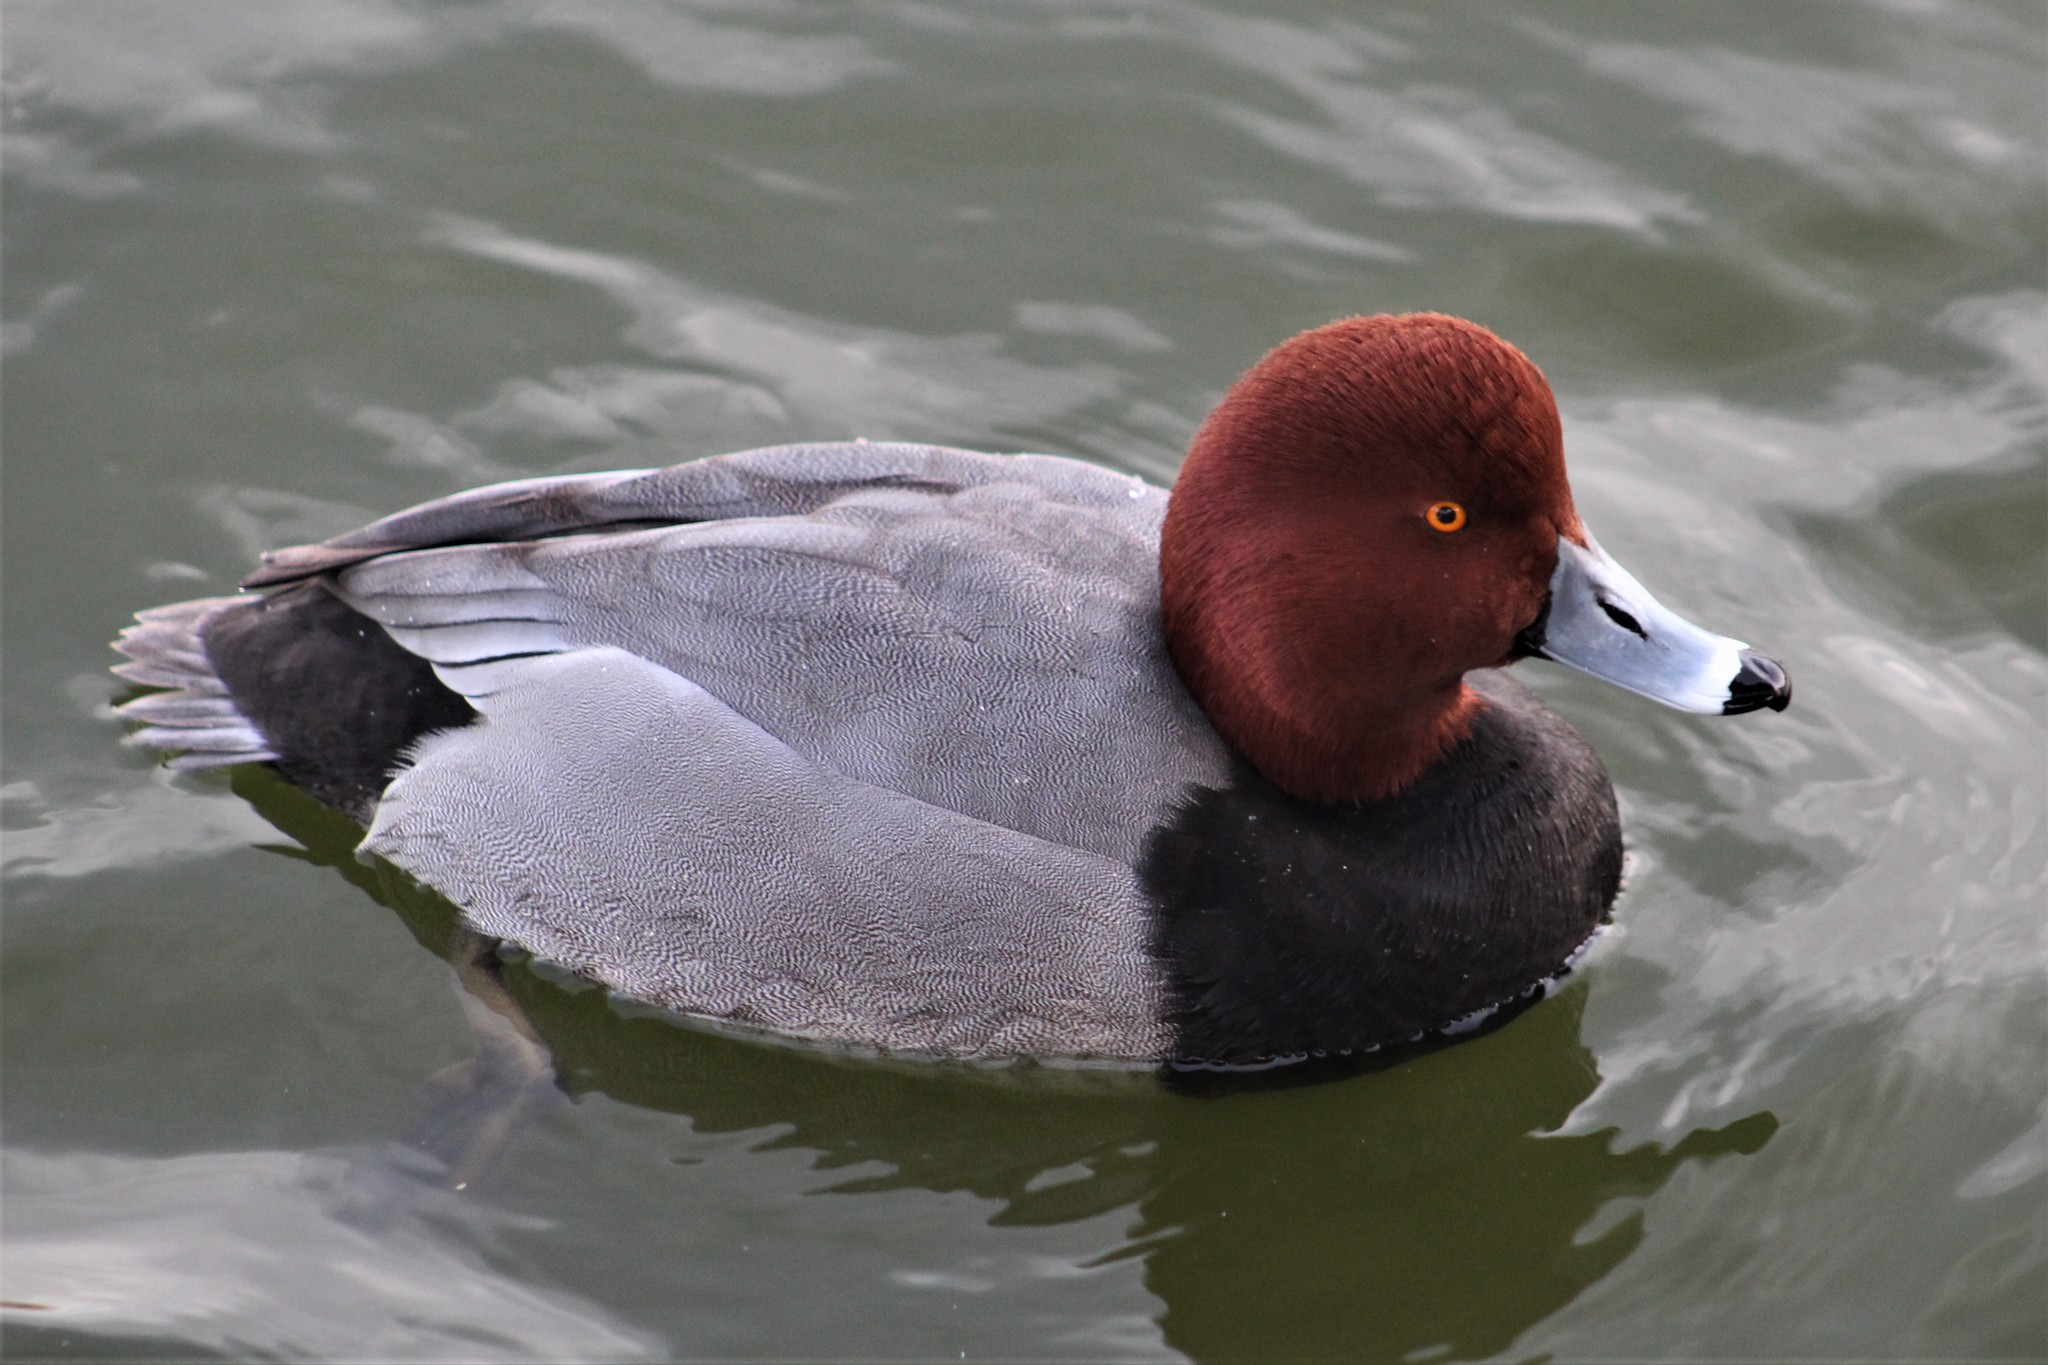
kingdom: Animalia
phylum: Chordata
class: Aves
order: Anseriformes
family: Anatidae
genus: Aythya
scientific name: Aythya americana
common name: Redhead
